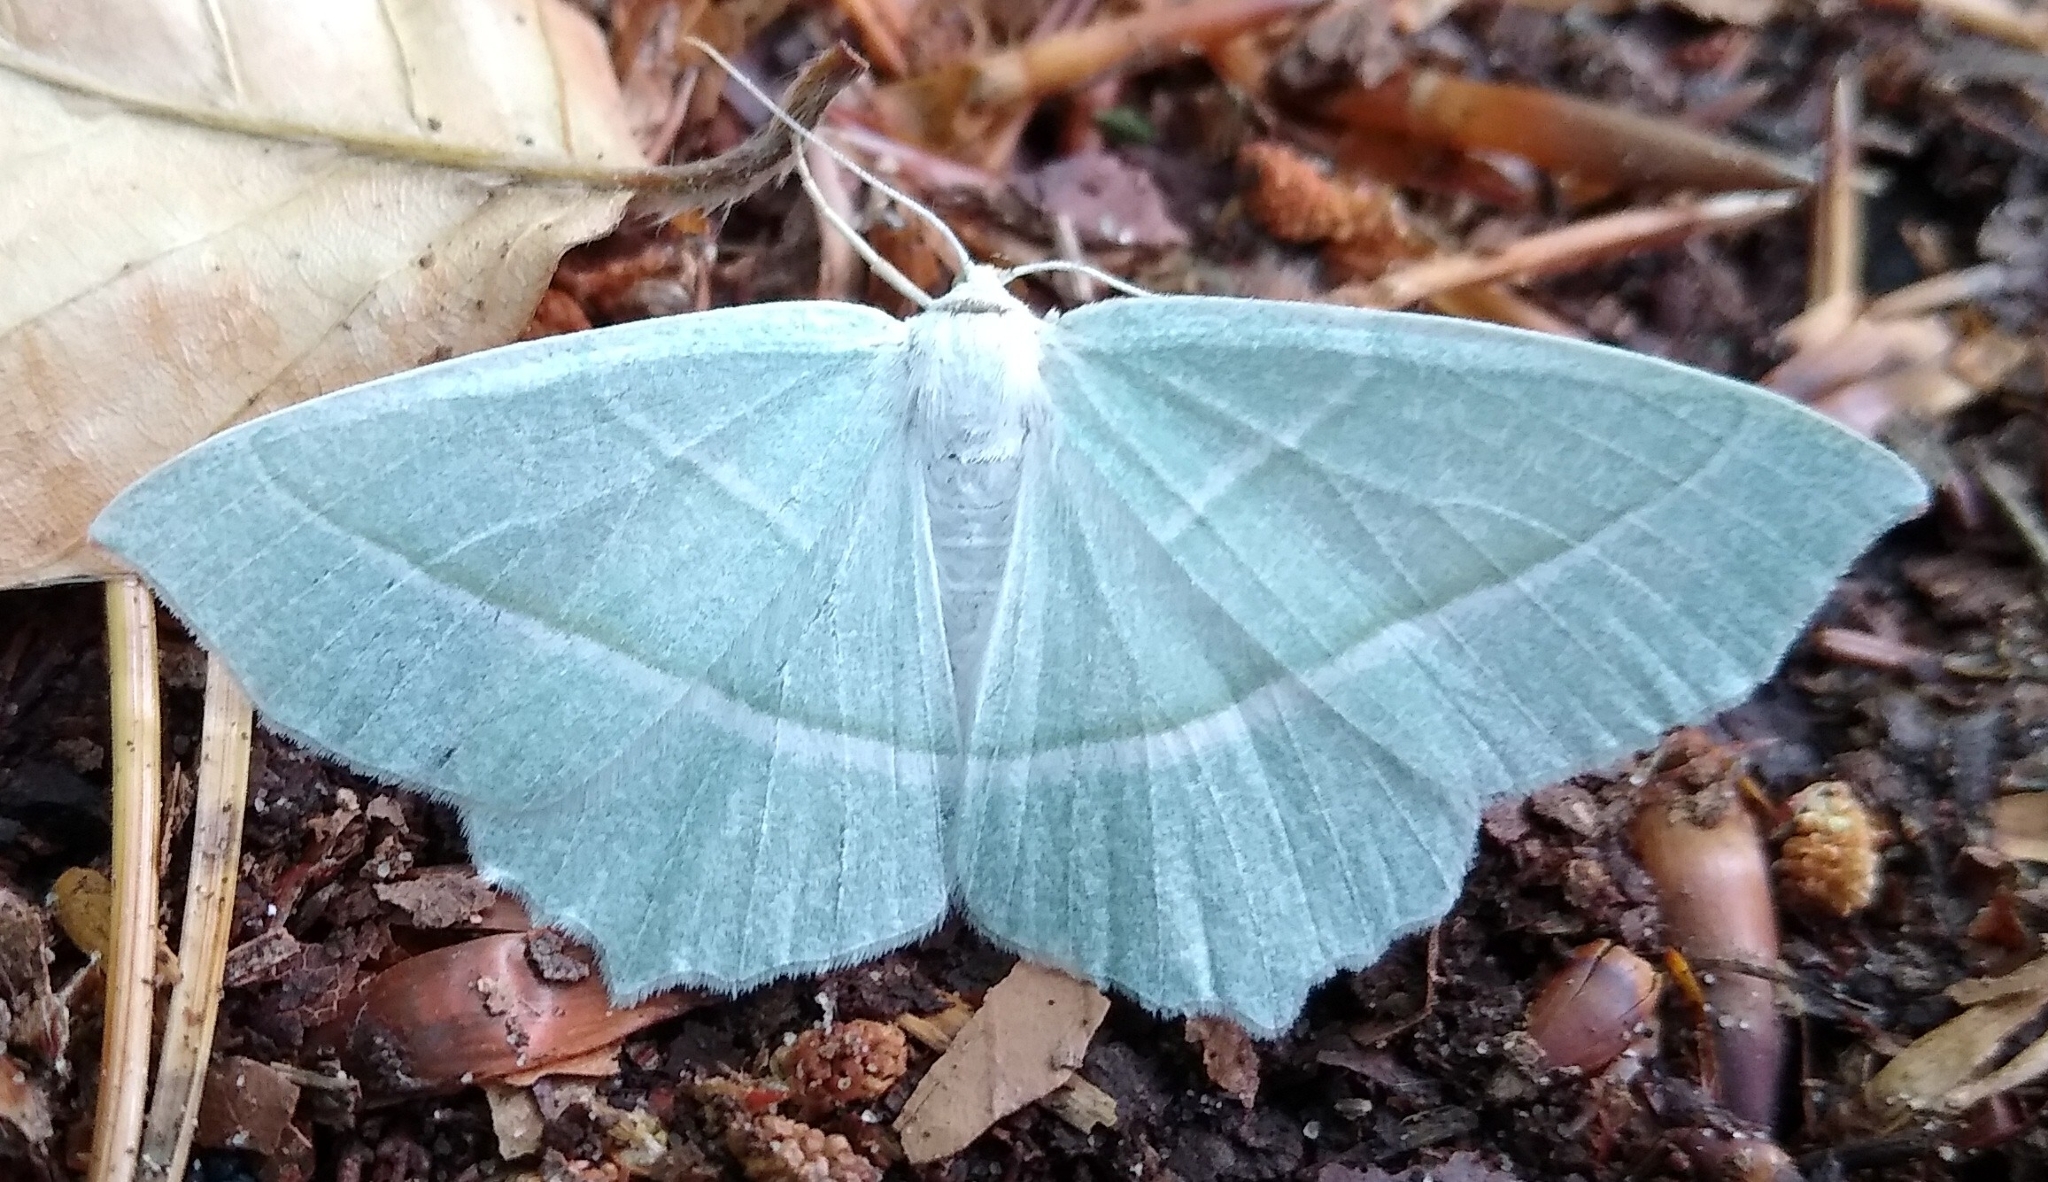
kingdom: Animalia
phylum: Arthropoda
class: Insecta
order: Lepidoptera
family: Geometridae
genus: Campaea
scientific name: Campaea margaritaria
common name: Light emerald
